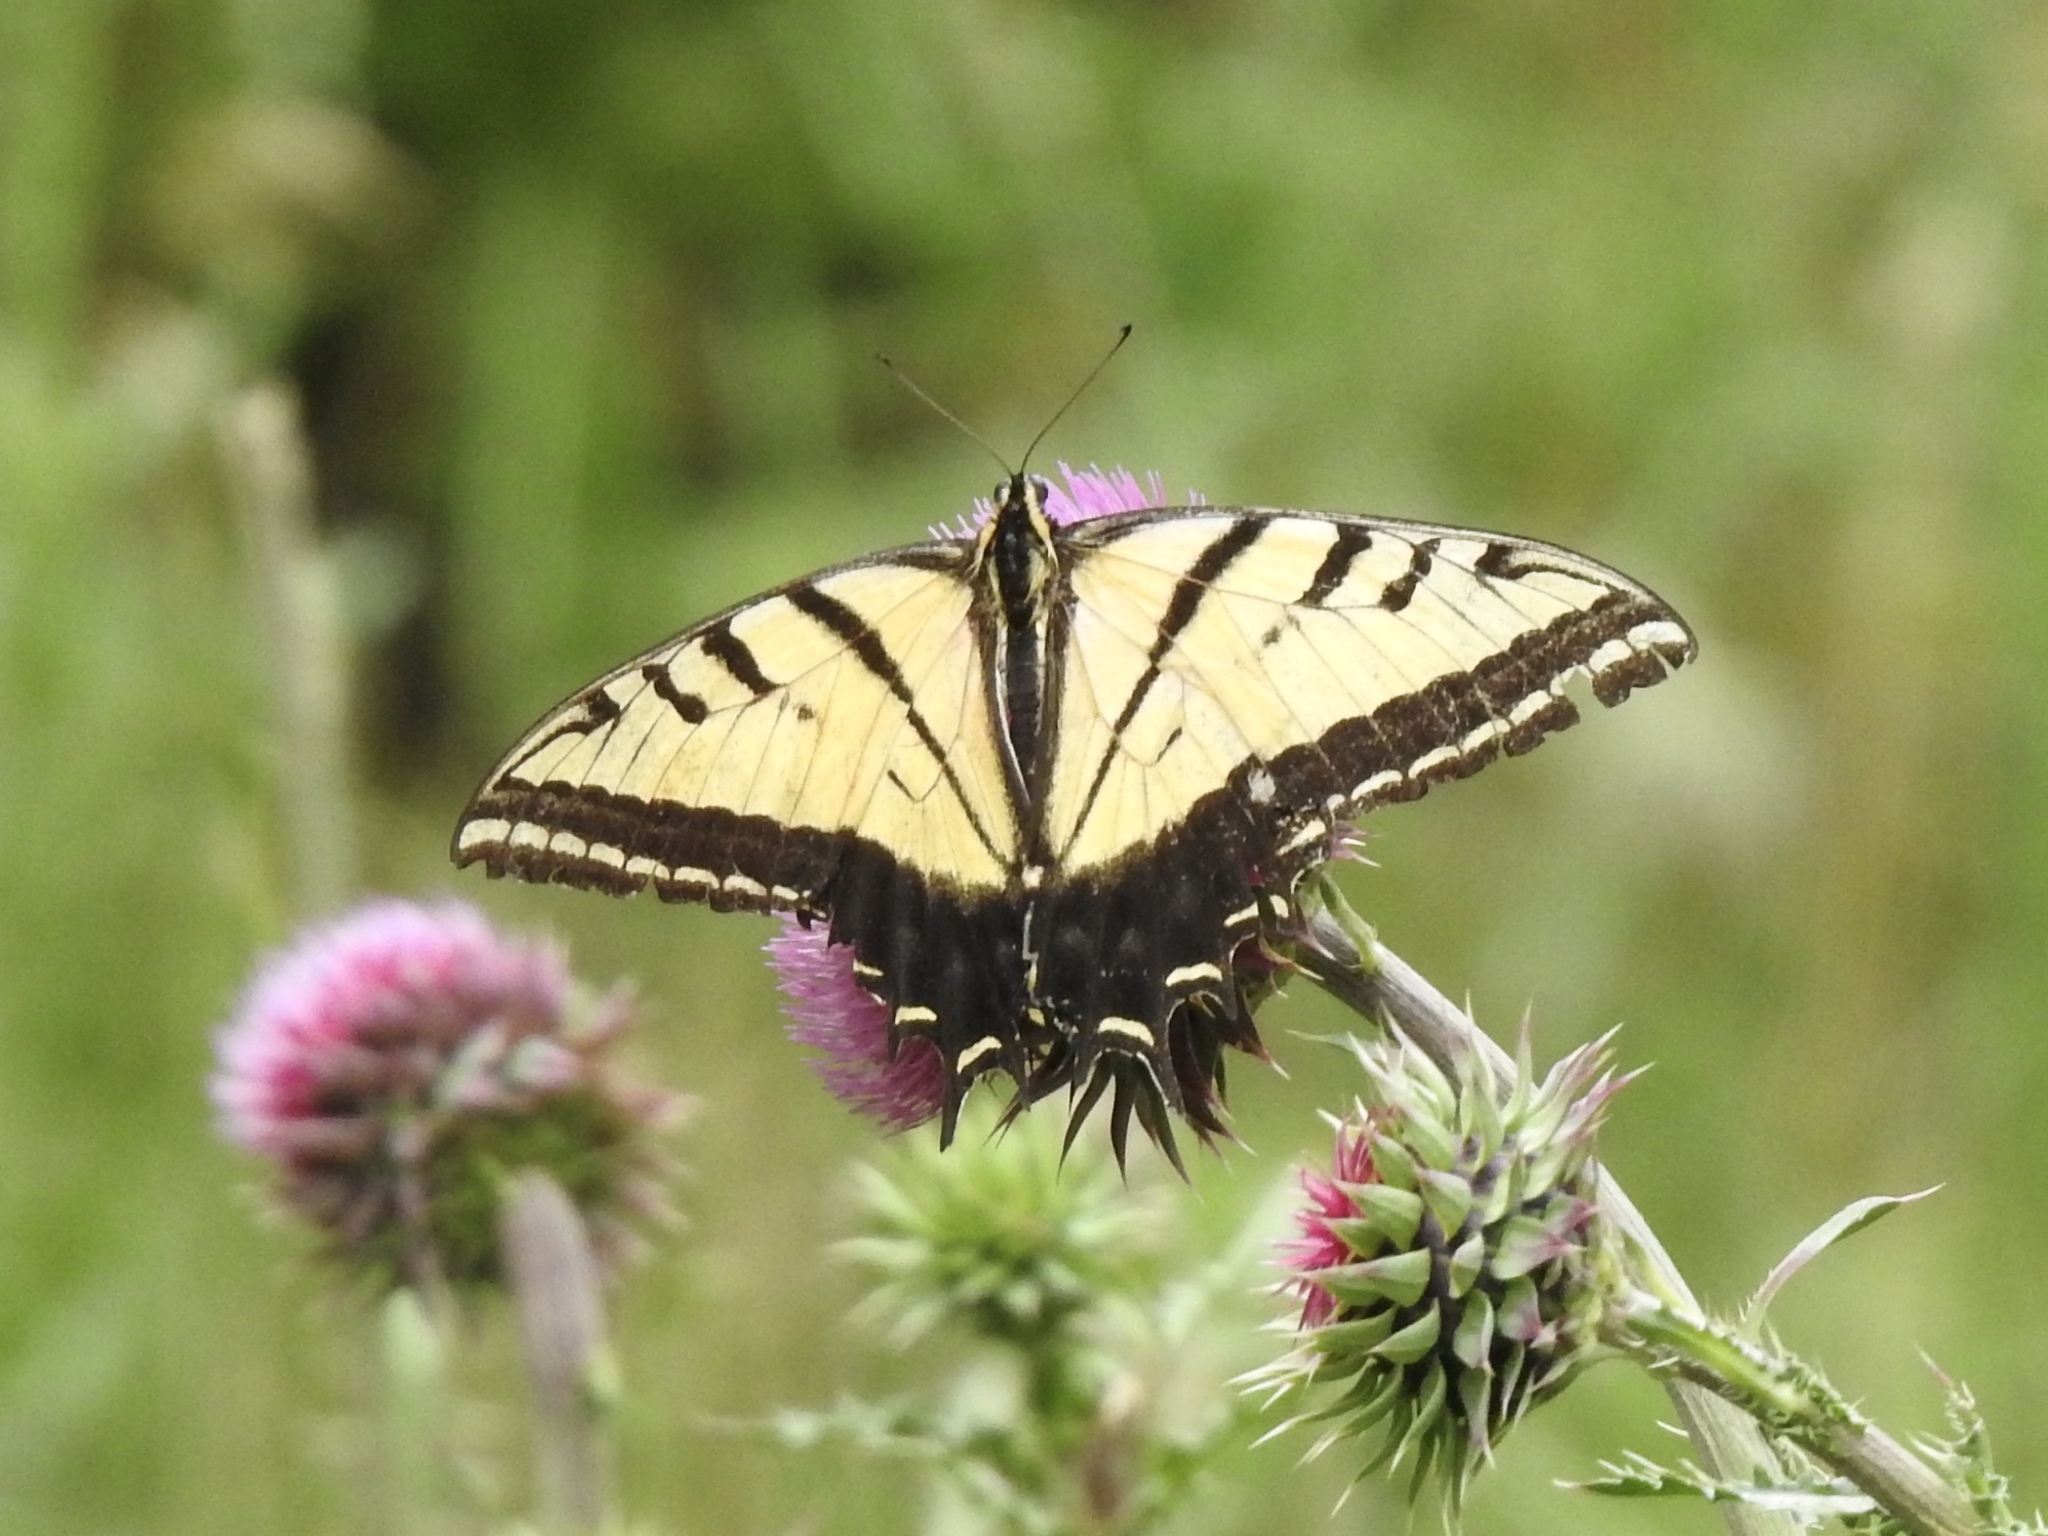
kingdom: Animalia
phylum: Arthropoda
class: Insecta
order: Lepidoptera
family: Papilionidae
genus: Papilio
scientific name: Papilio multicaudata
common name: Two-tailed tiger swallowtail
